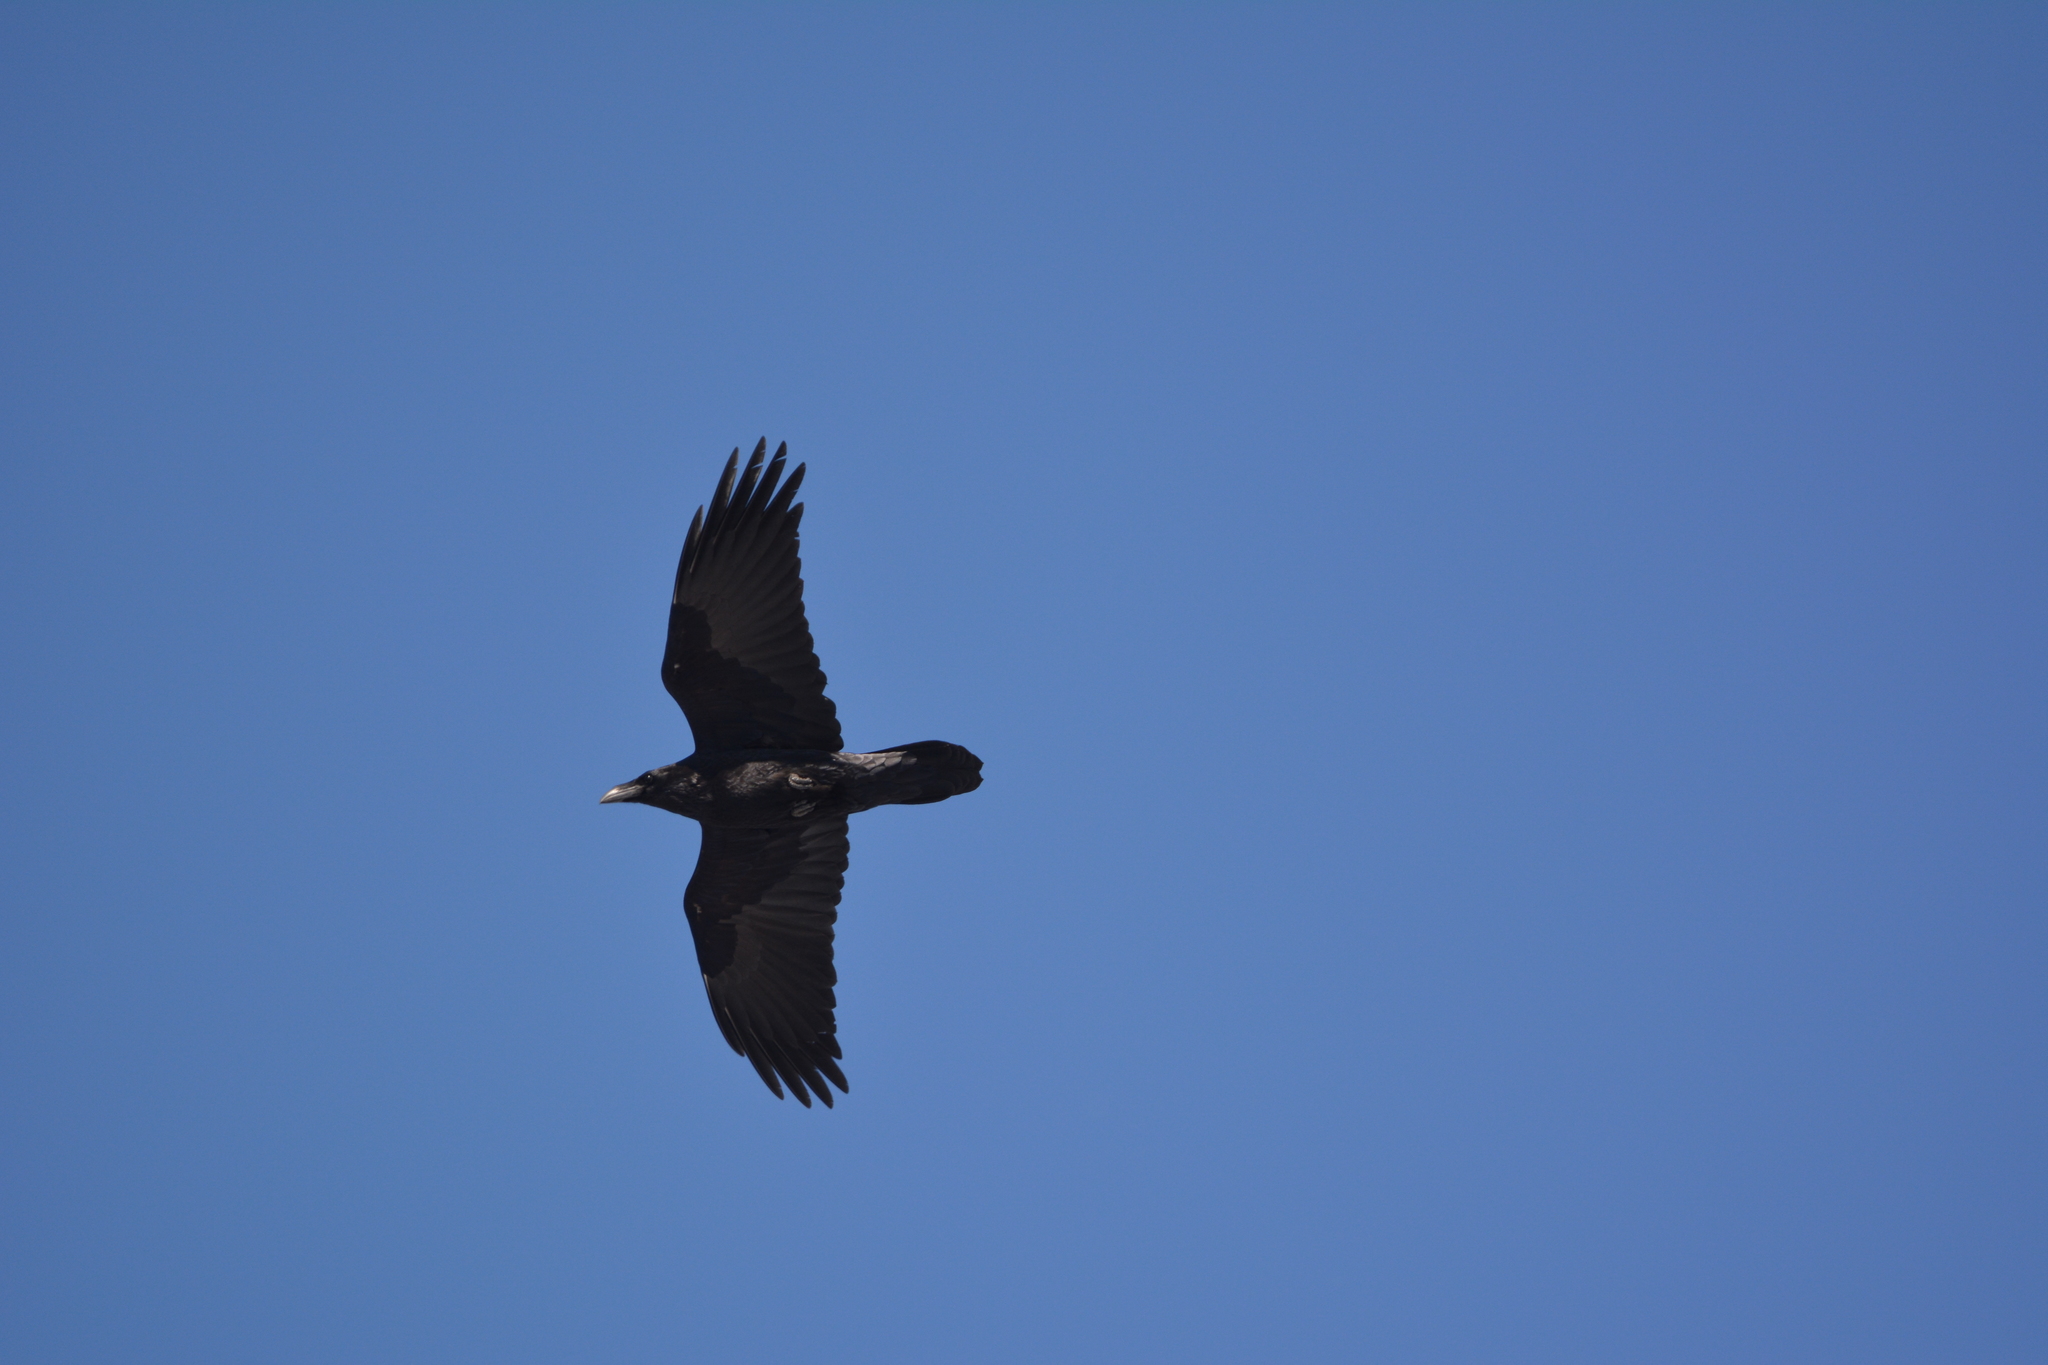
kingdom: Animalia
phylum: Chordata
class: Aves
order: Passeriformes
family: Corvidae
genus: Corvus
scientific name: Corvus corax
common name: Common raven
